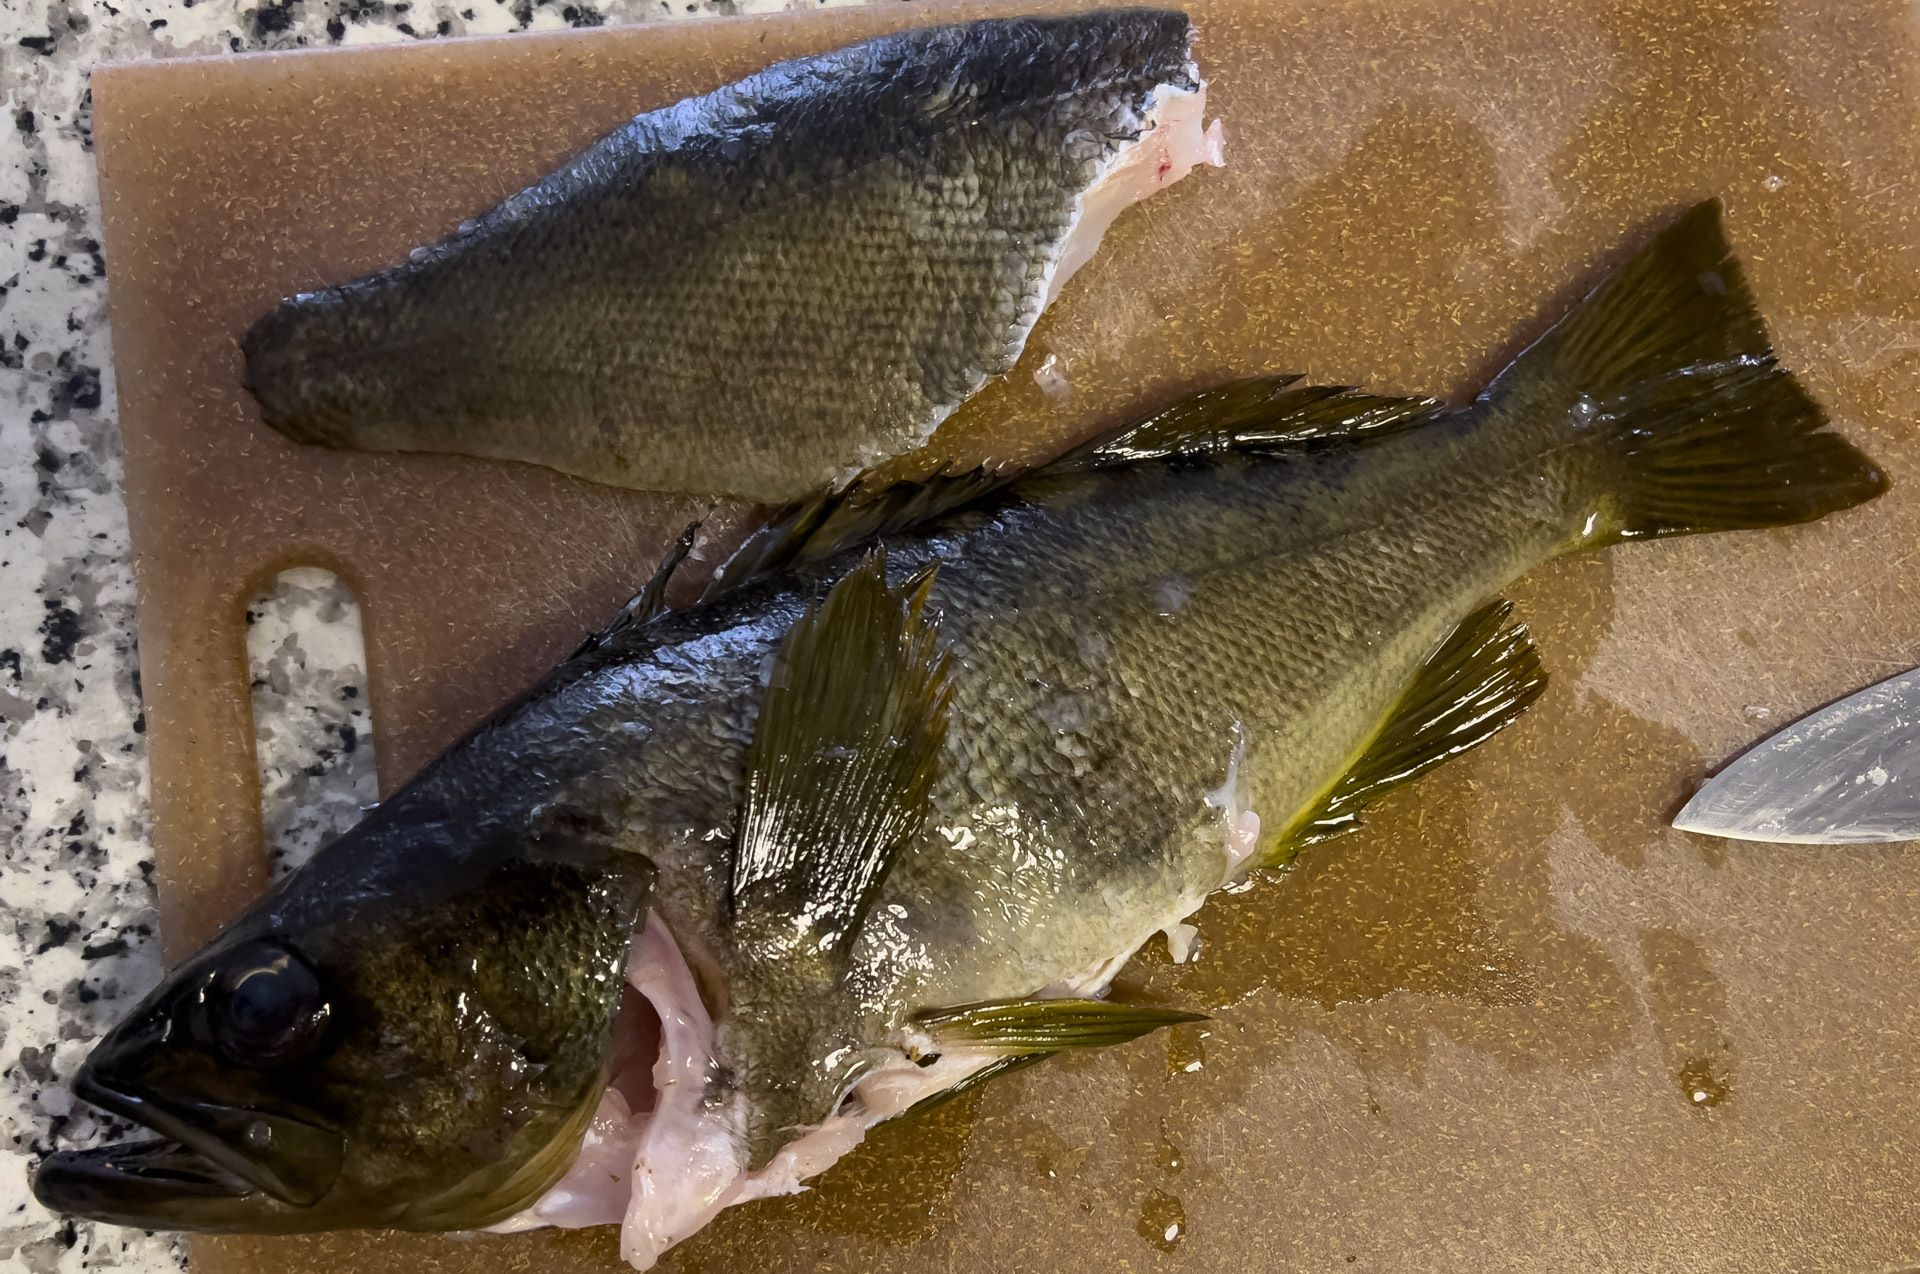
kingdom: Animalia
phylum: Chordata
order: Scorpaeniformes
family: Sebastidae
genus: Sebastes
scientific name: Sebastes serranoides
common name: Olive rockfish
